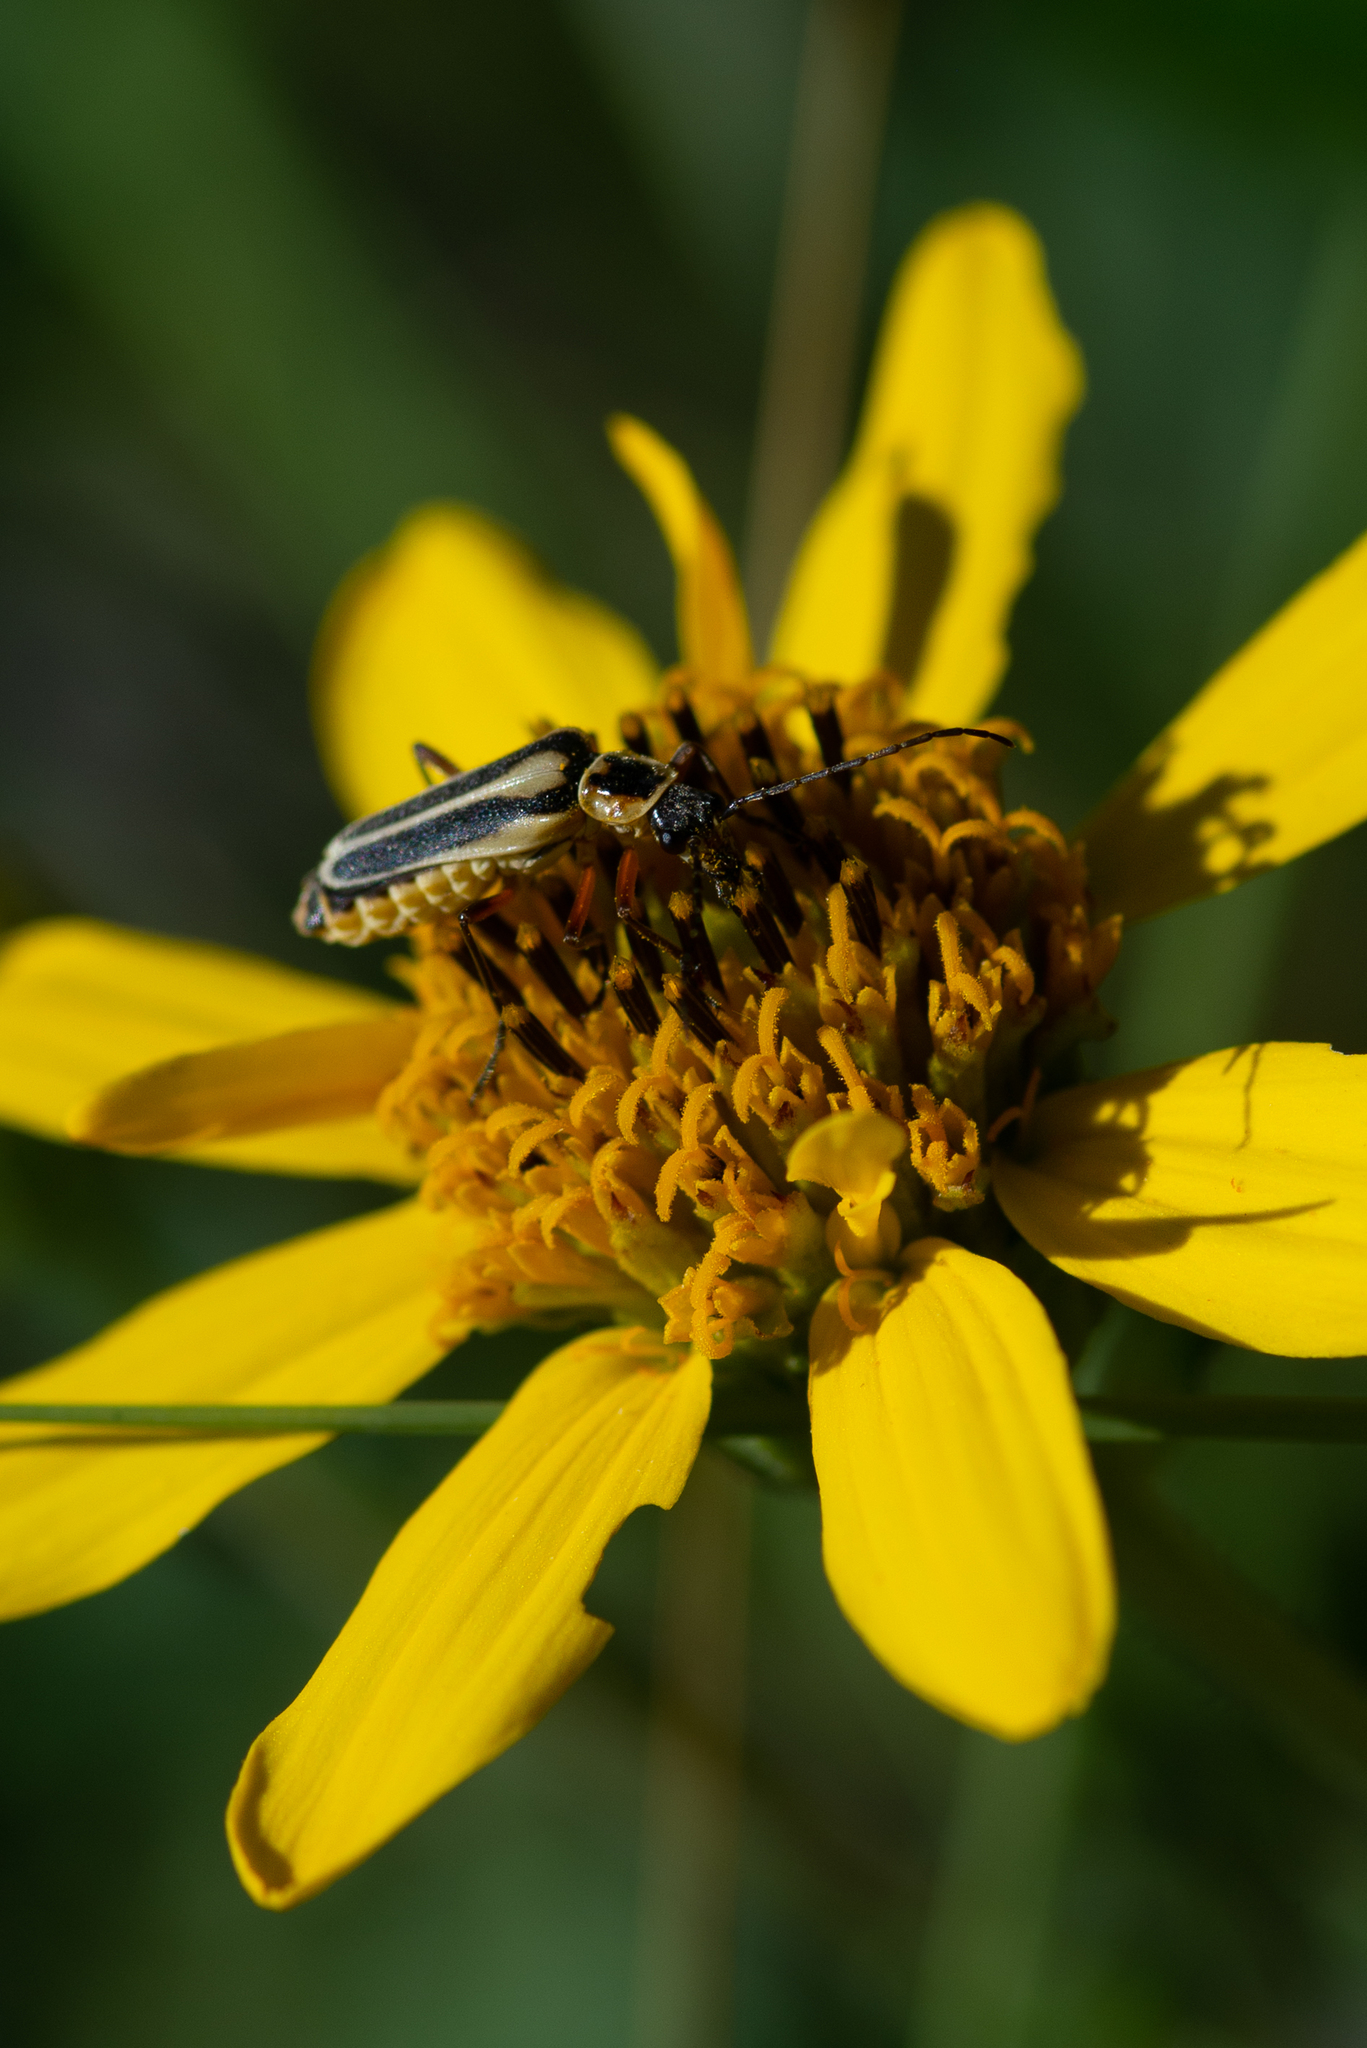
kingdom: Animalia
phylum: Arthropoda
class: Insecta
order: Coleoptera
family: Cantharidae
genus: Chauliognathus
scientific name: Chauliognathus lewisi
